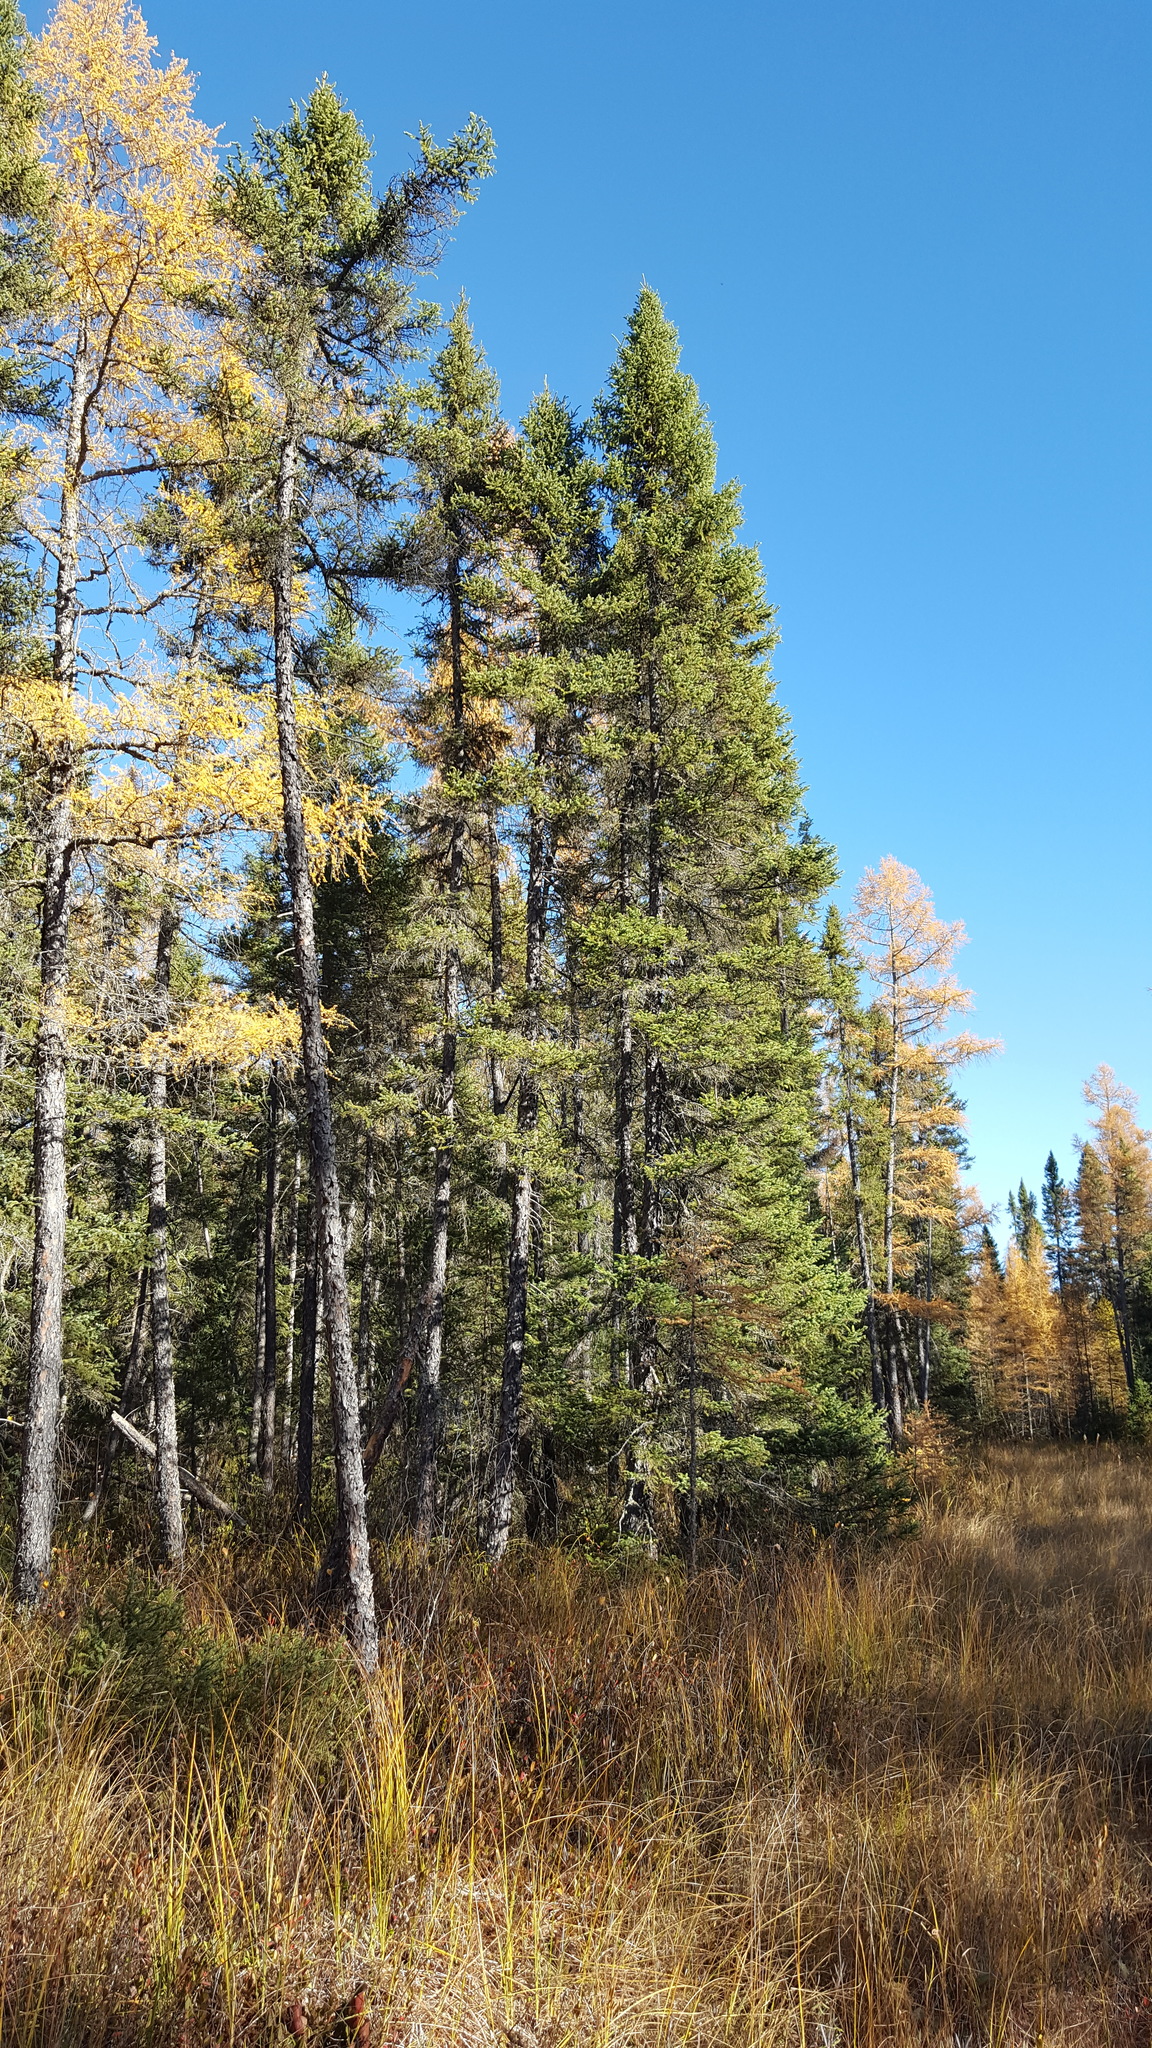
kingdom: Plantae
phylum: Tracheophyta
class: Pinopsida
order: Pinales
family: Pinaceae
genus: Picea
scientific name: Picea mariana
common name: Black spruce
